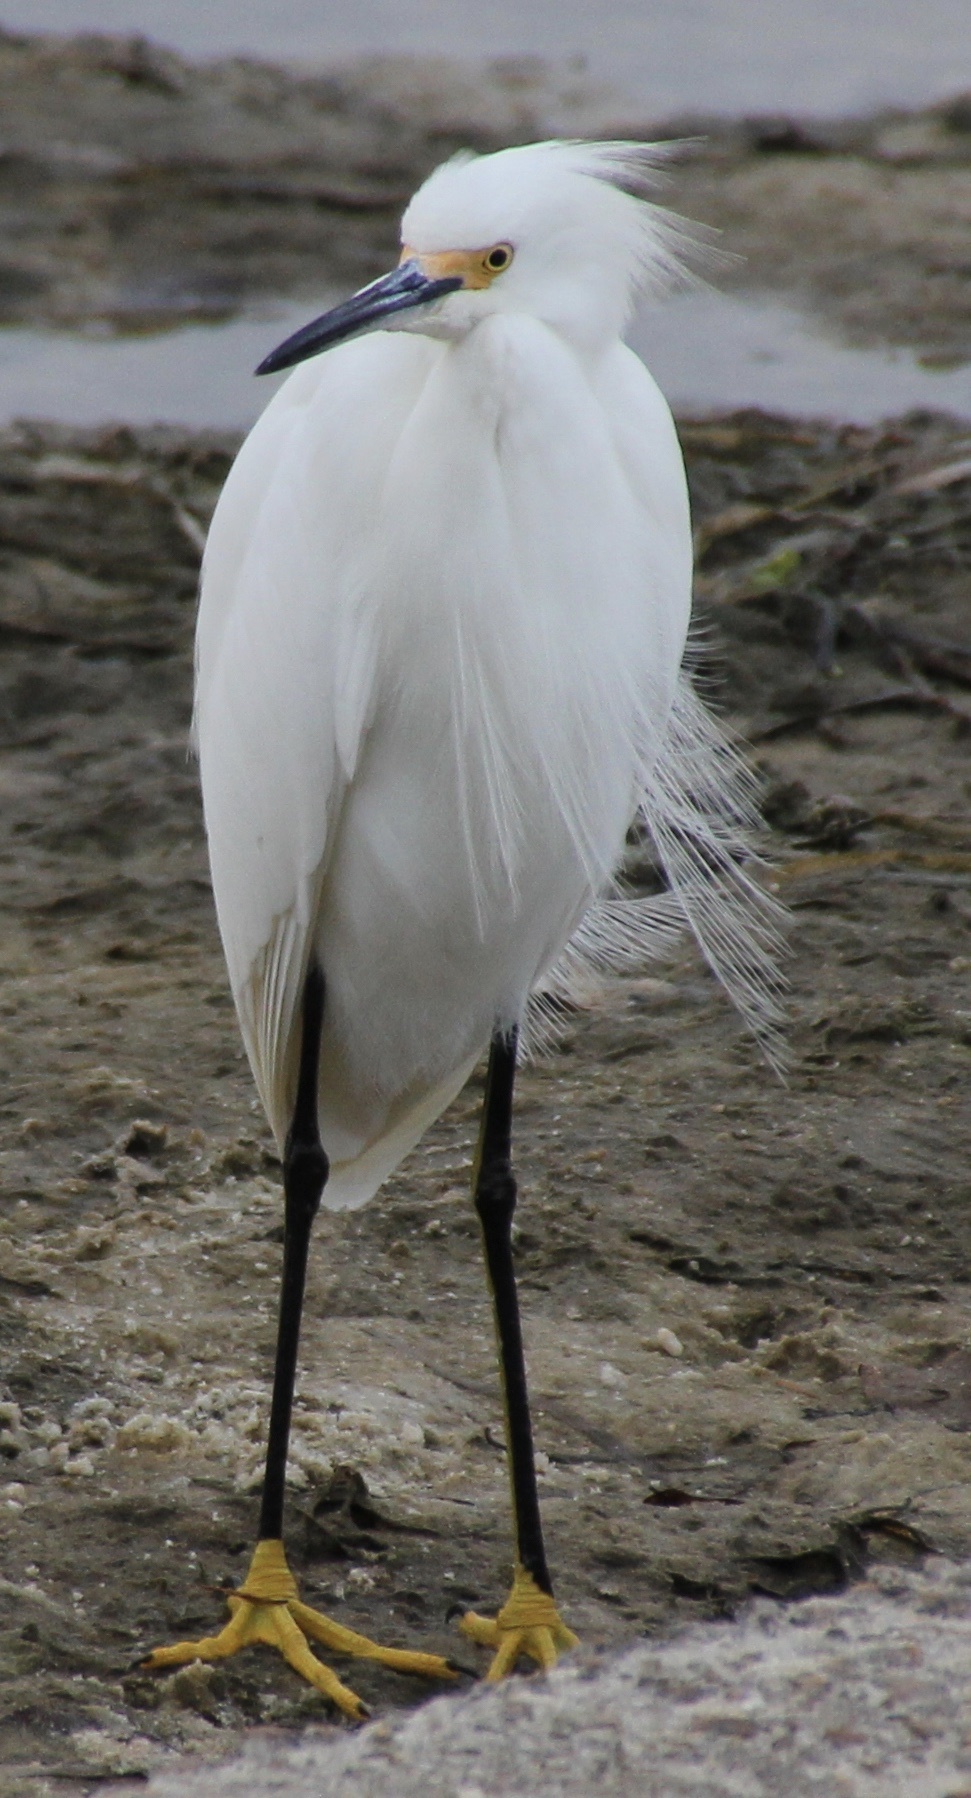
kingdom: Animalia
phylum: Chordata
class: Aves
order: Pelecaniformes
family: Ardeidae
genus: Egretta
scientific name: Egretta thula
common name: Snowy egret
